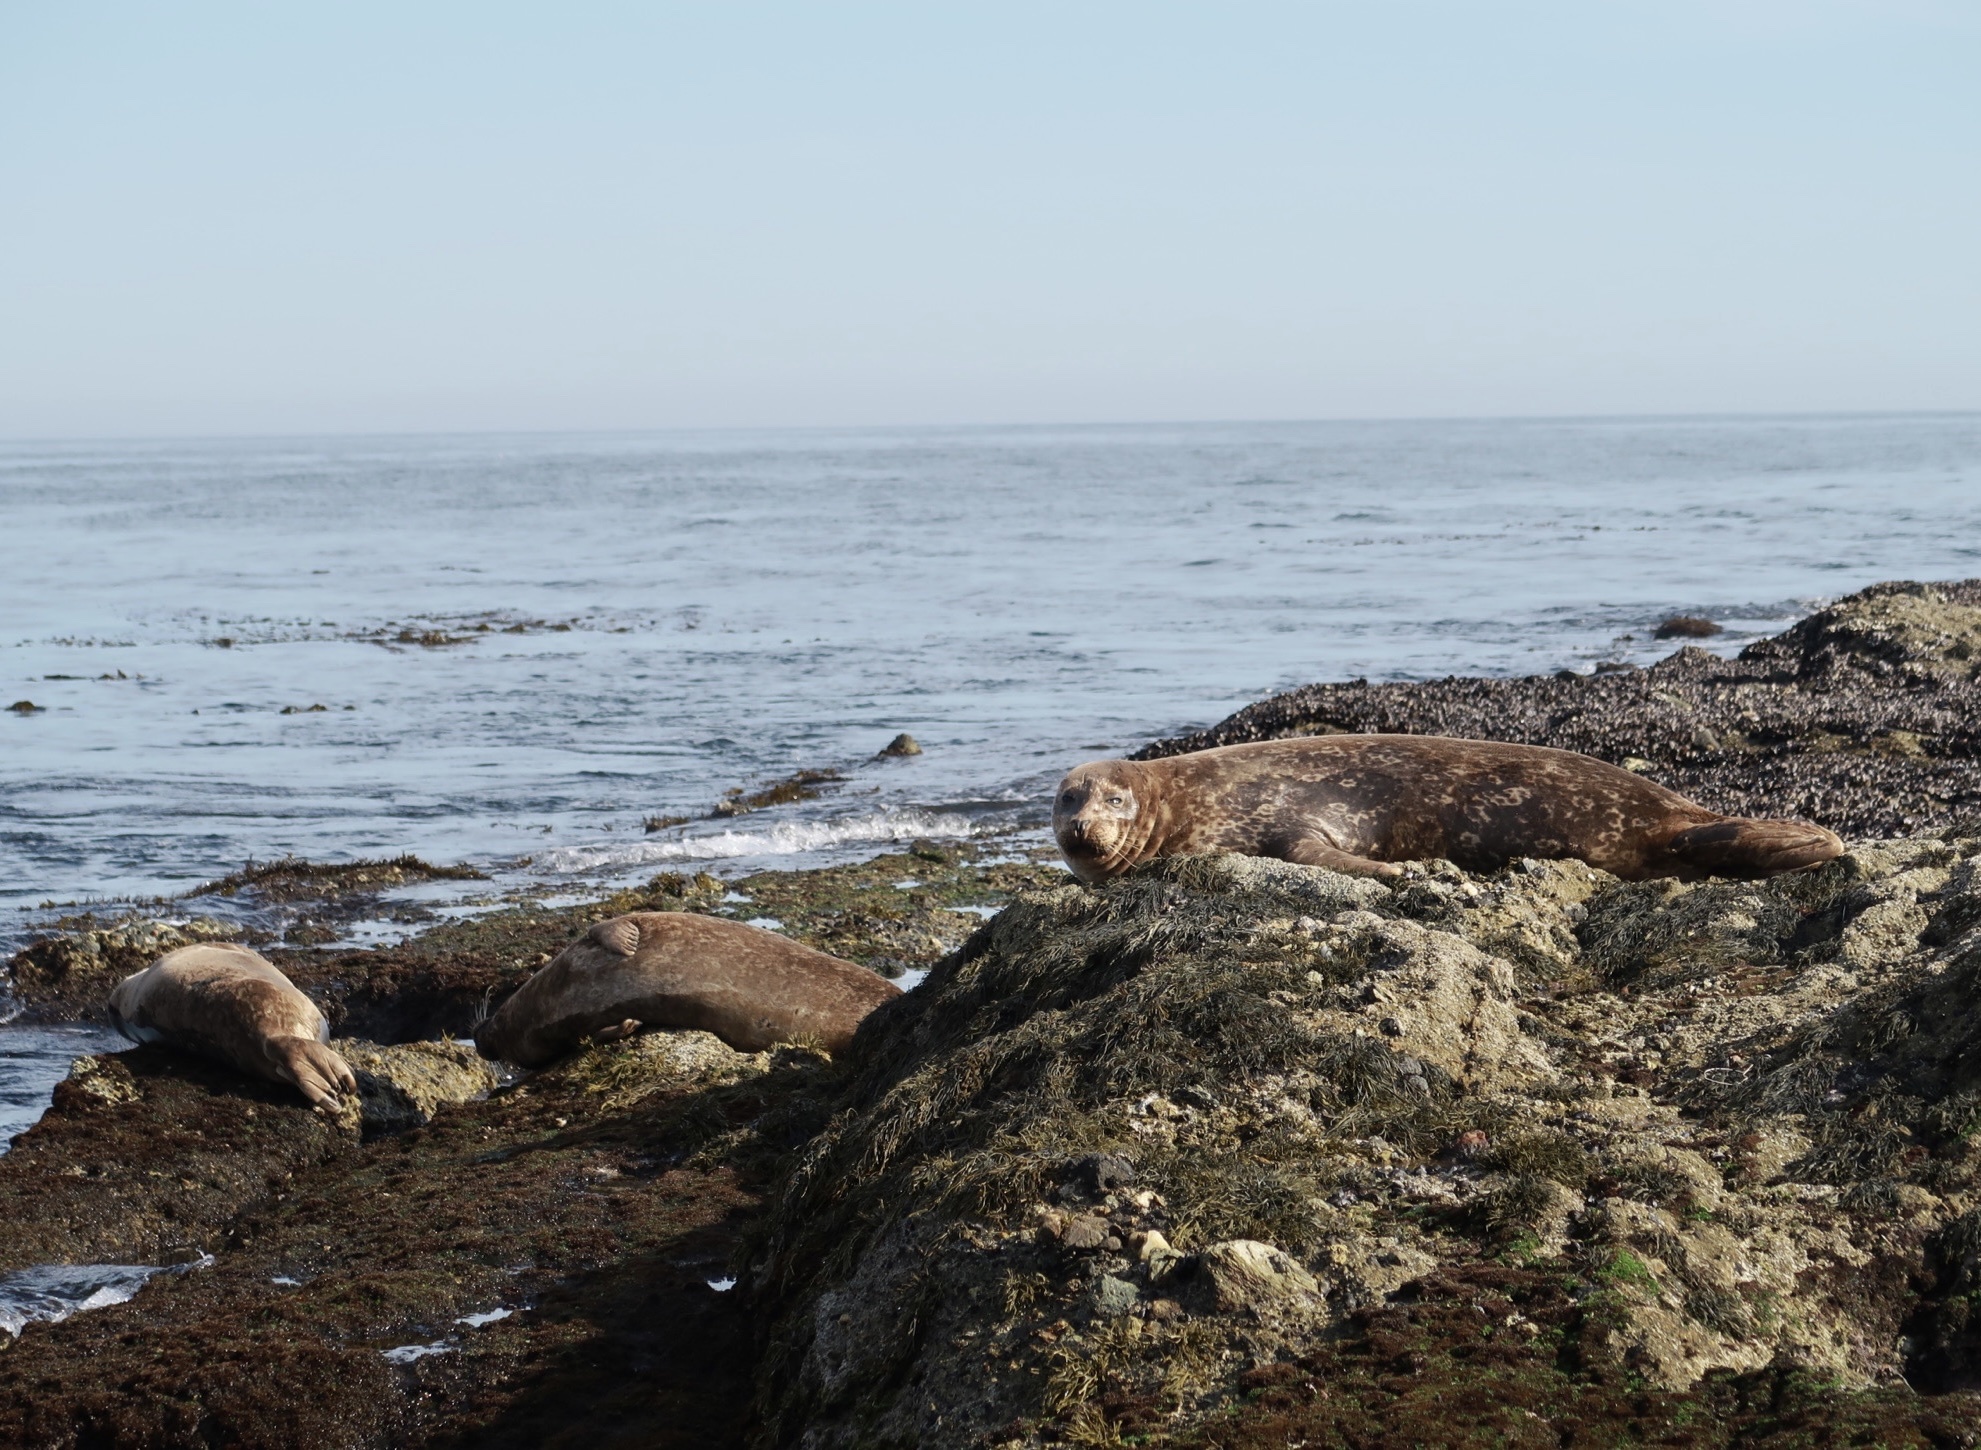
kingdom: Animalia
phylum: Chordata
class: Mammalia
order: Carnivora
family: Phocidae
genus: Phoca
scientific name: Phoca vitulina
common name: Harbor seal
